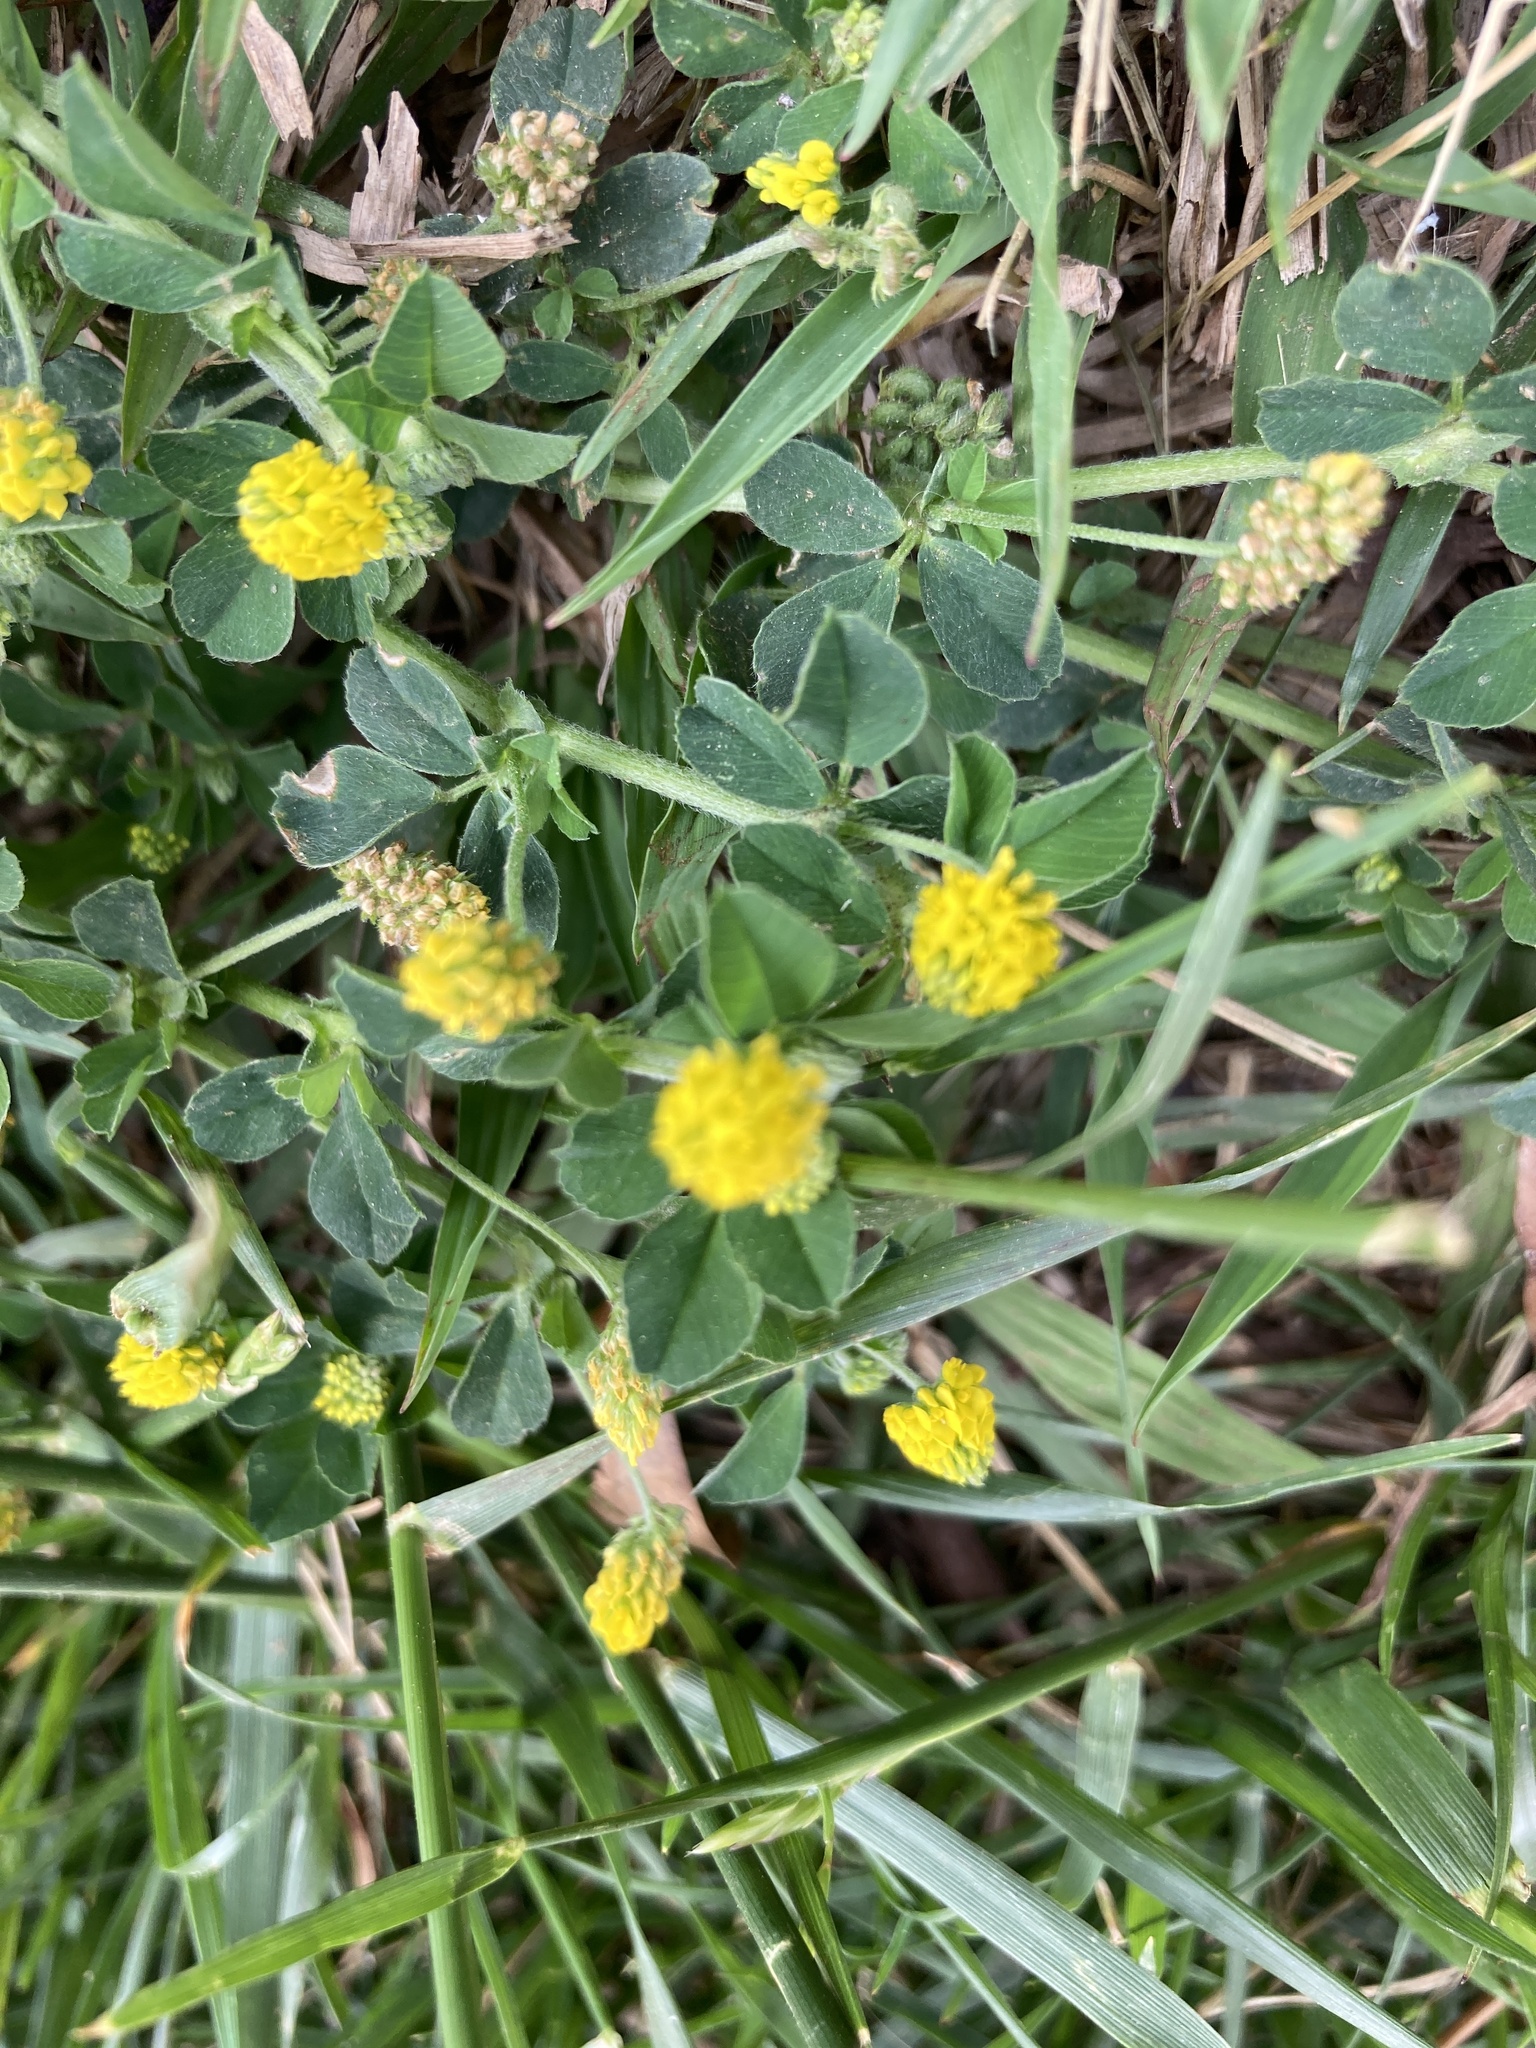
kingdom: Plantae
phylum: Tracheophyta
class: Magnoliopsida
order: Fabales
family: Fabaceae
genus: Medicago
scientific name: Medicago lupulina
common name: Black medick
